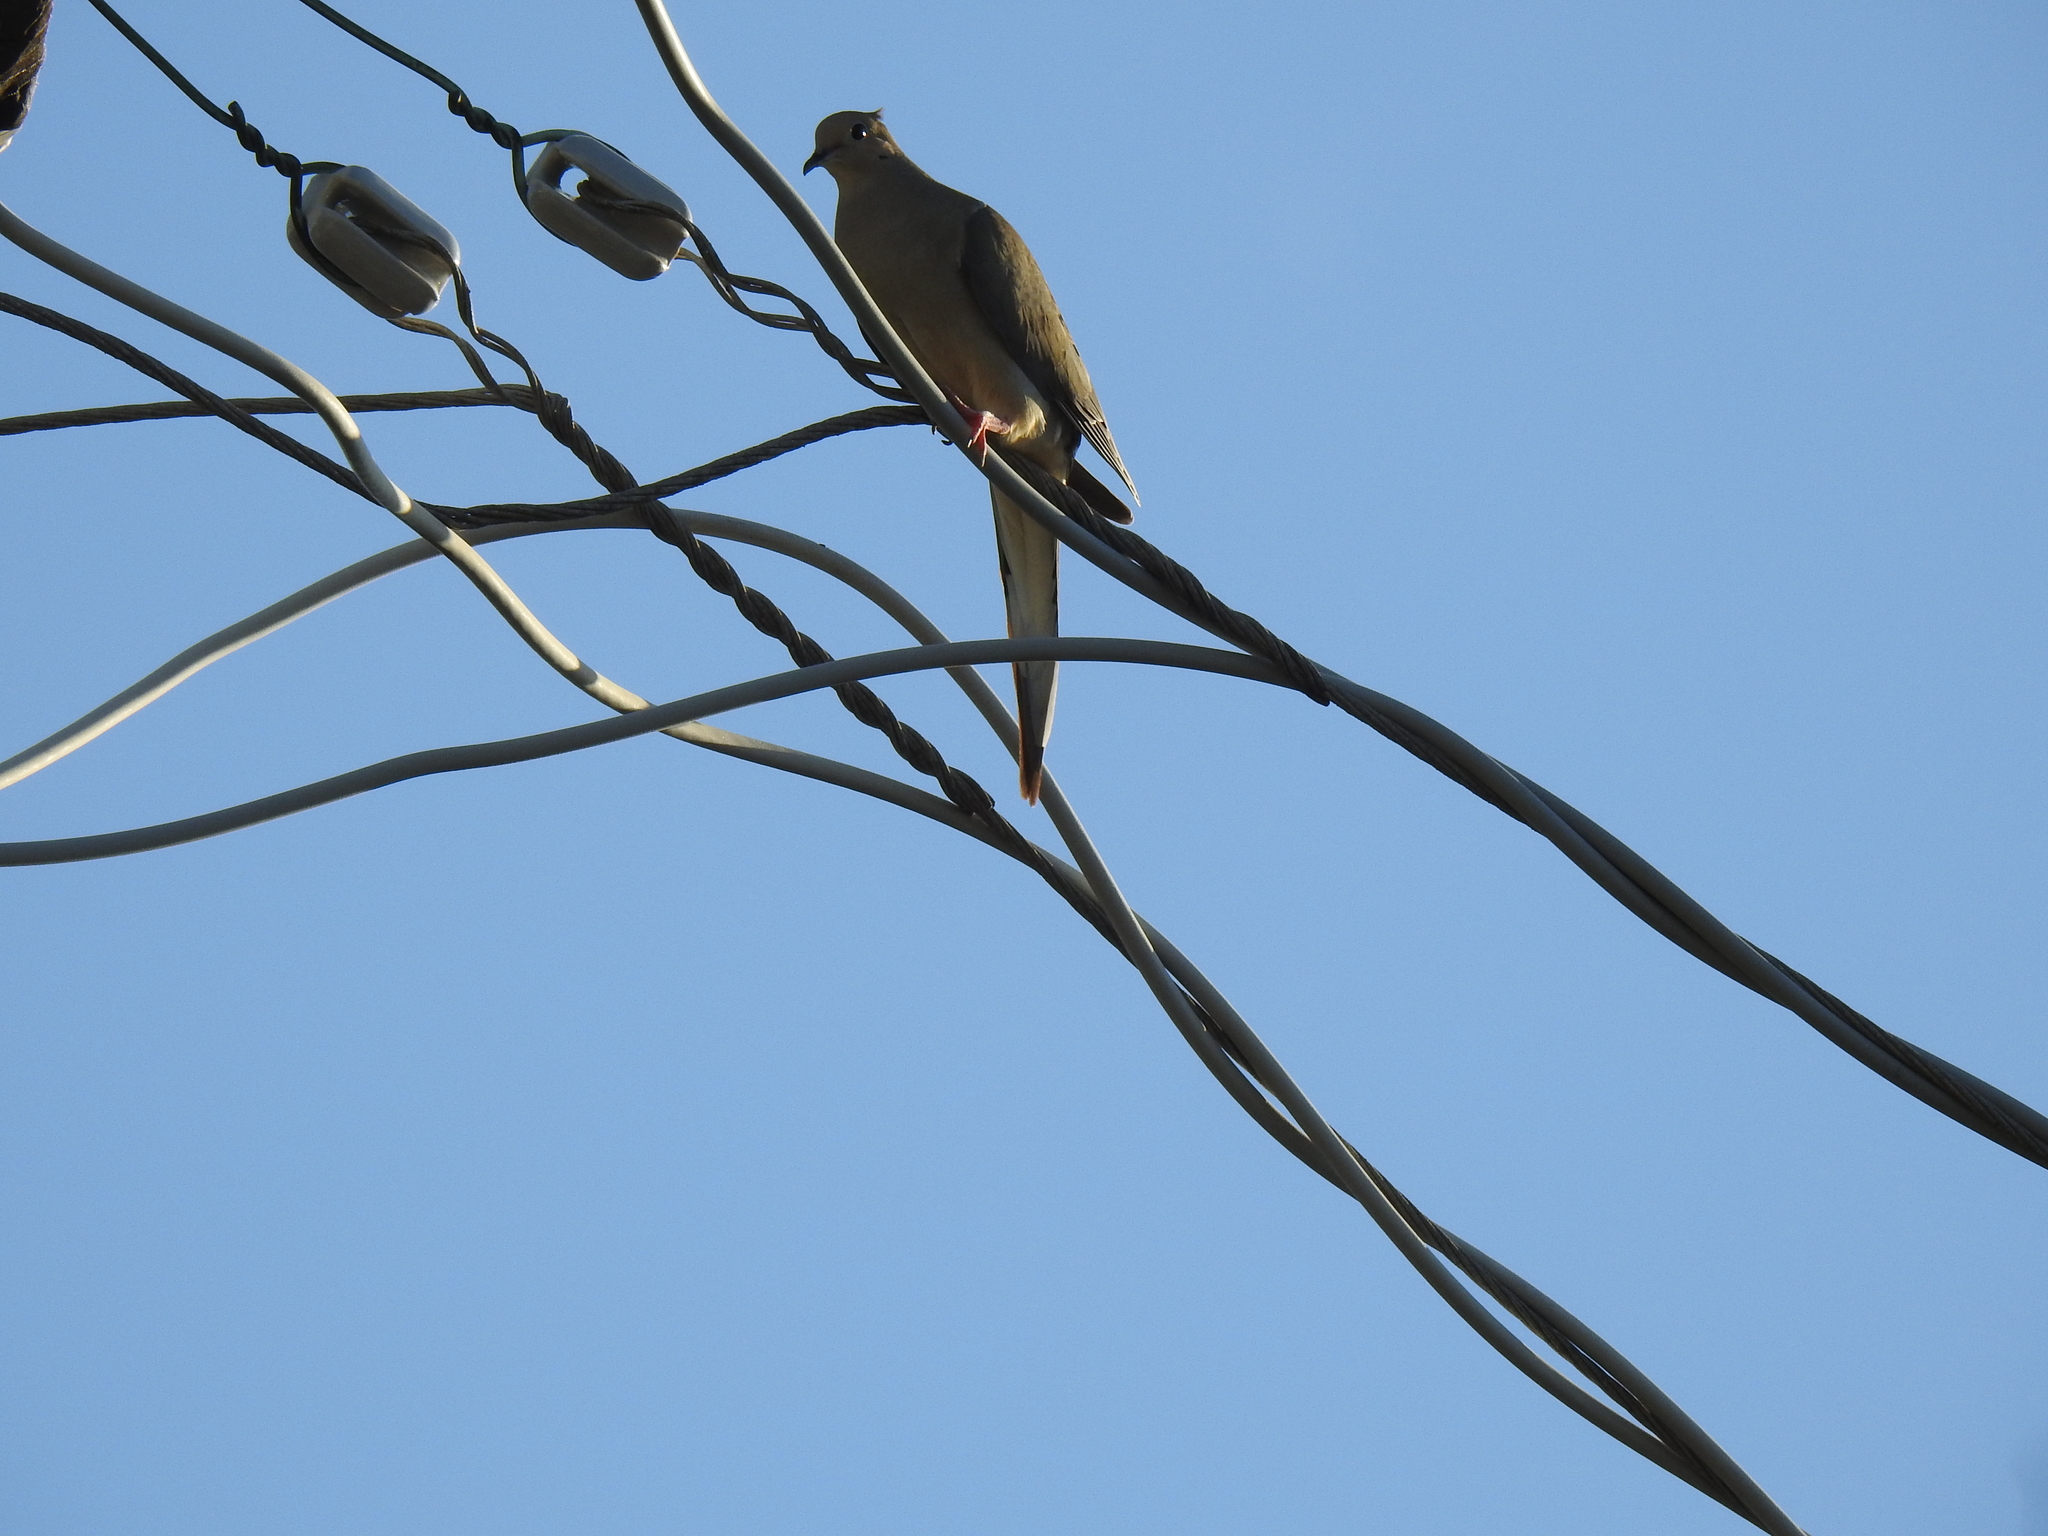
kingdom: Animalia
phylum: Chordata
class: Aves
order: Columbiformes
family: Columbidae
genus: Zenaida
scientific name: Zenaida macroura
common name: Mourning dove
